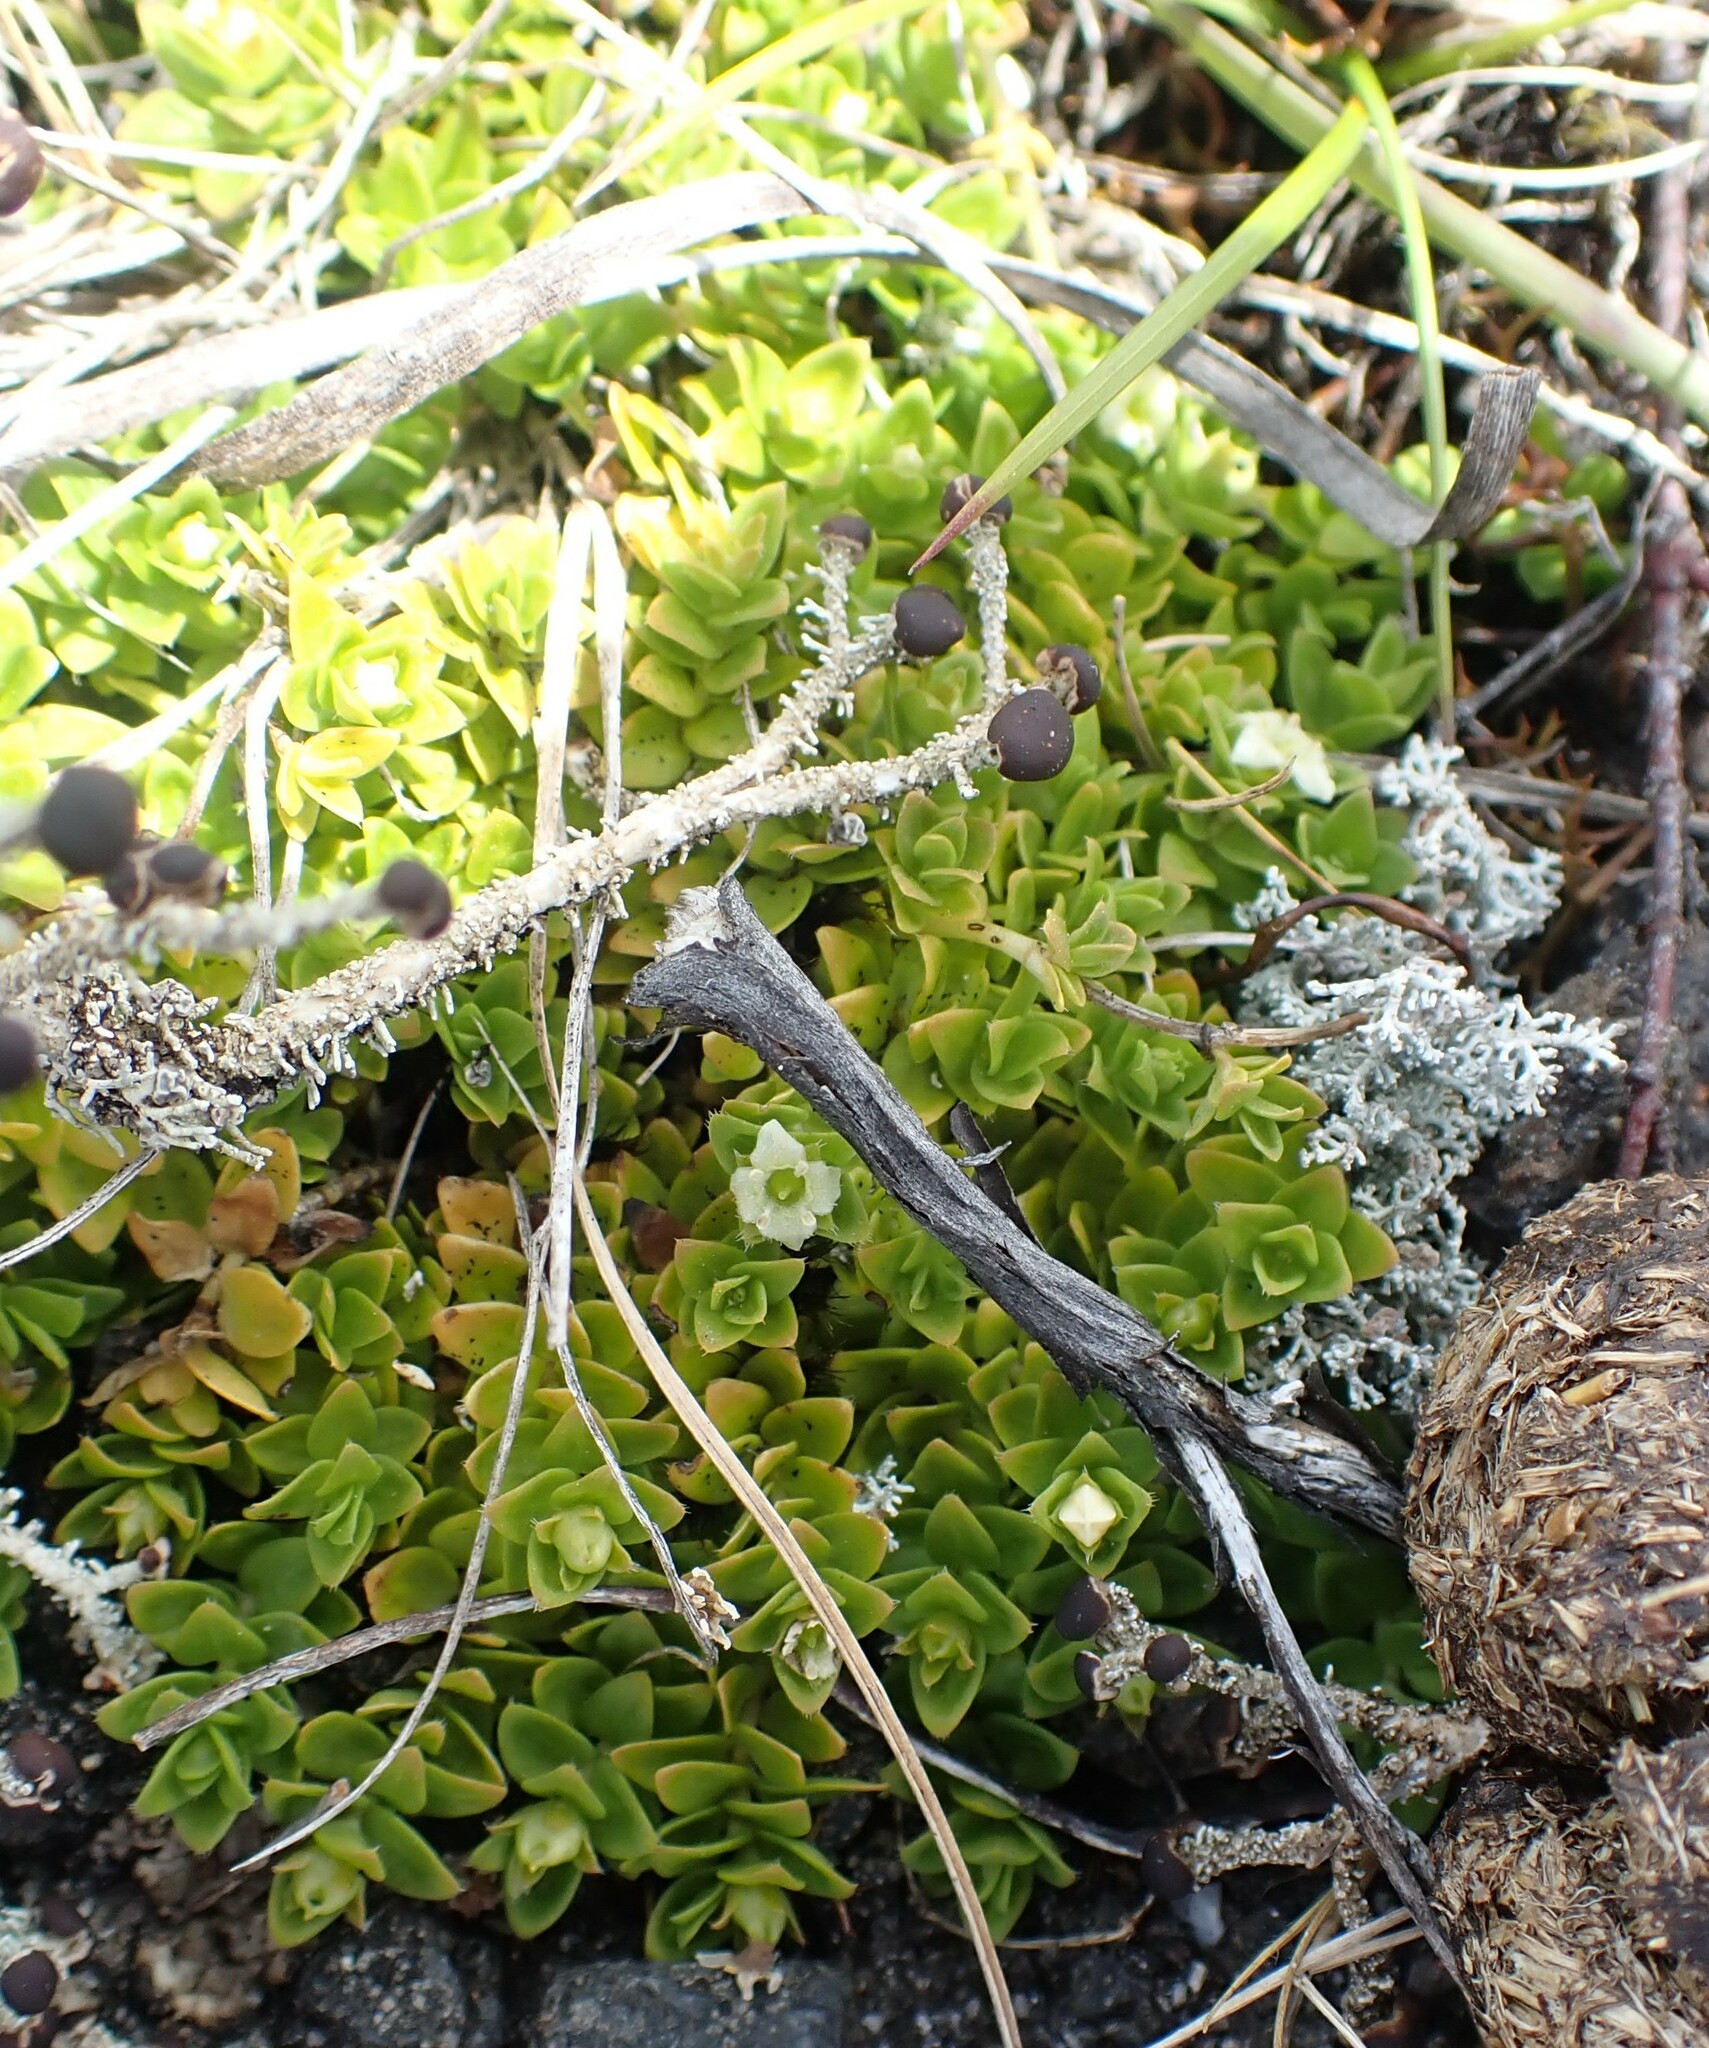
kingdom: Plantae
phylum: Tracheophyta
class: Magnoliopsida
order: Gentianales
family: Loganiaceae
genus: Mitrasacme
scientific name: Mitrasacme pilosa
